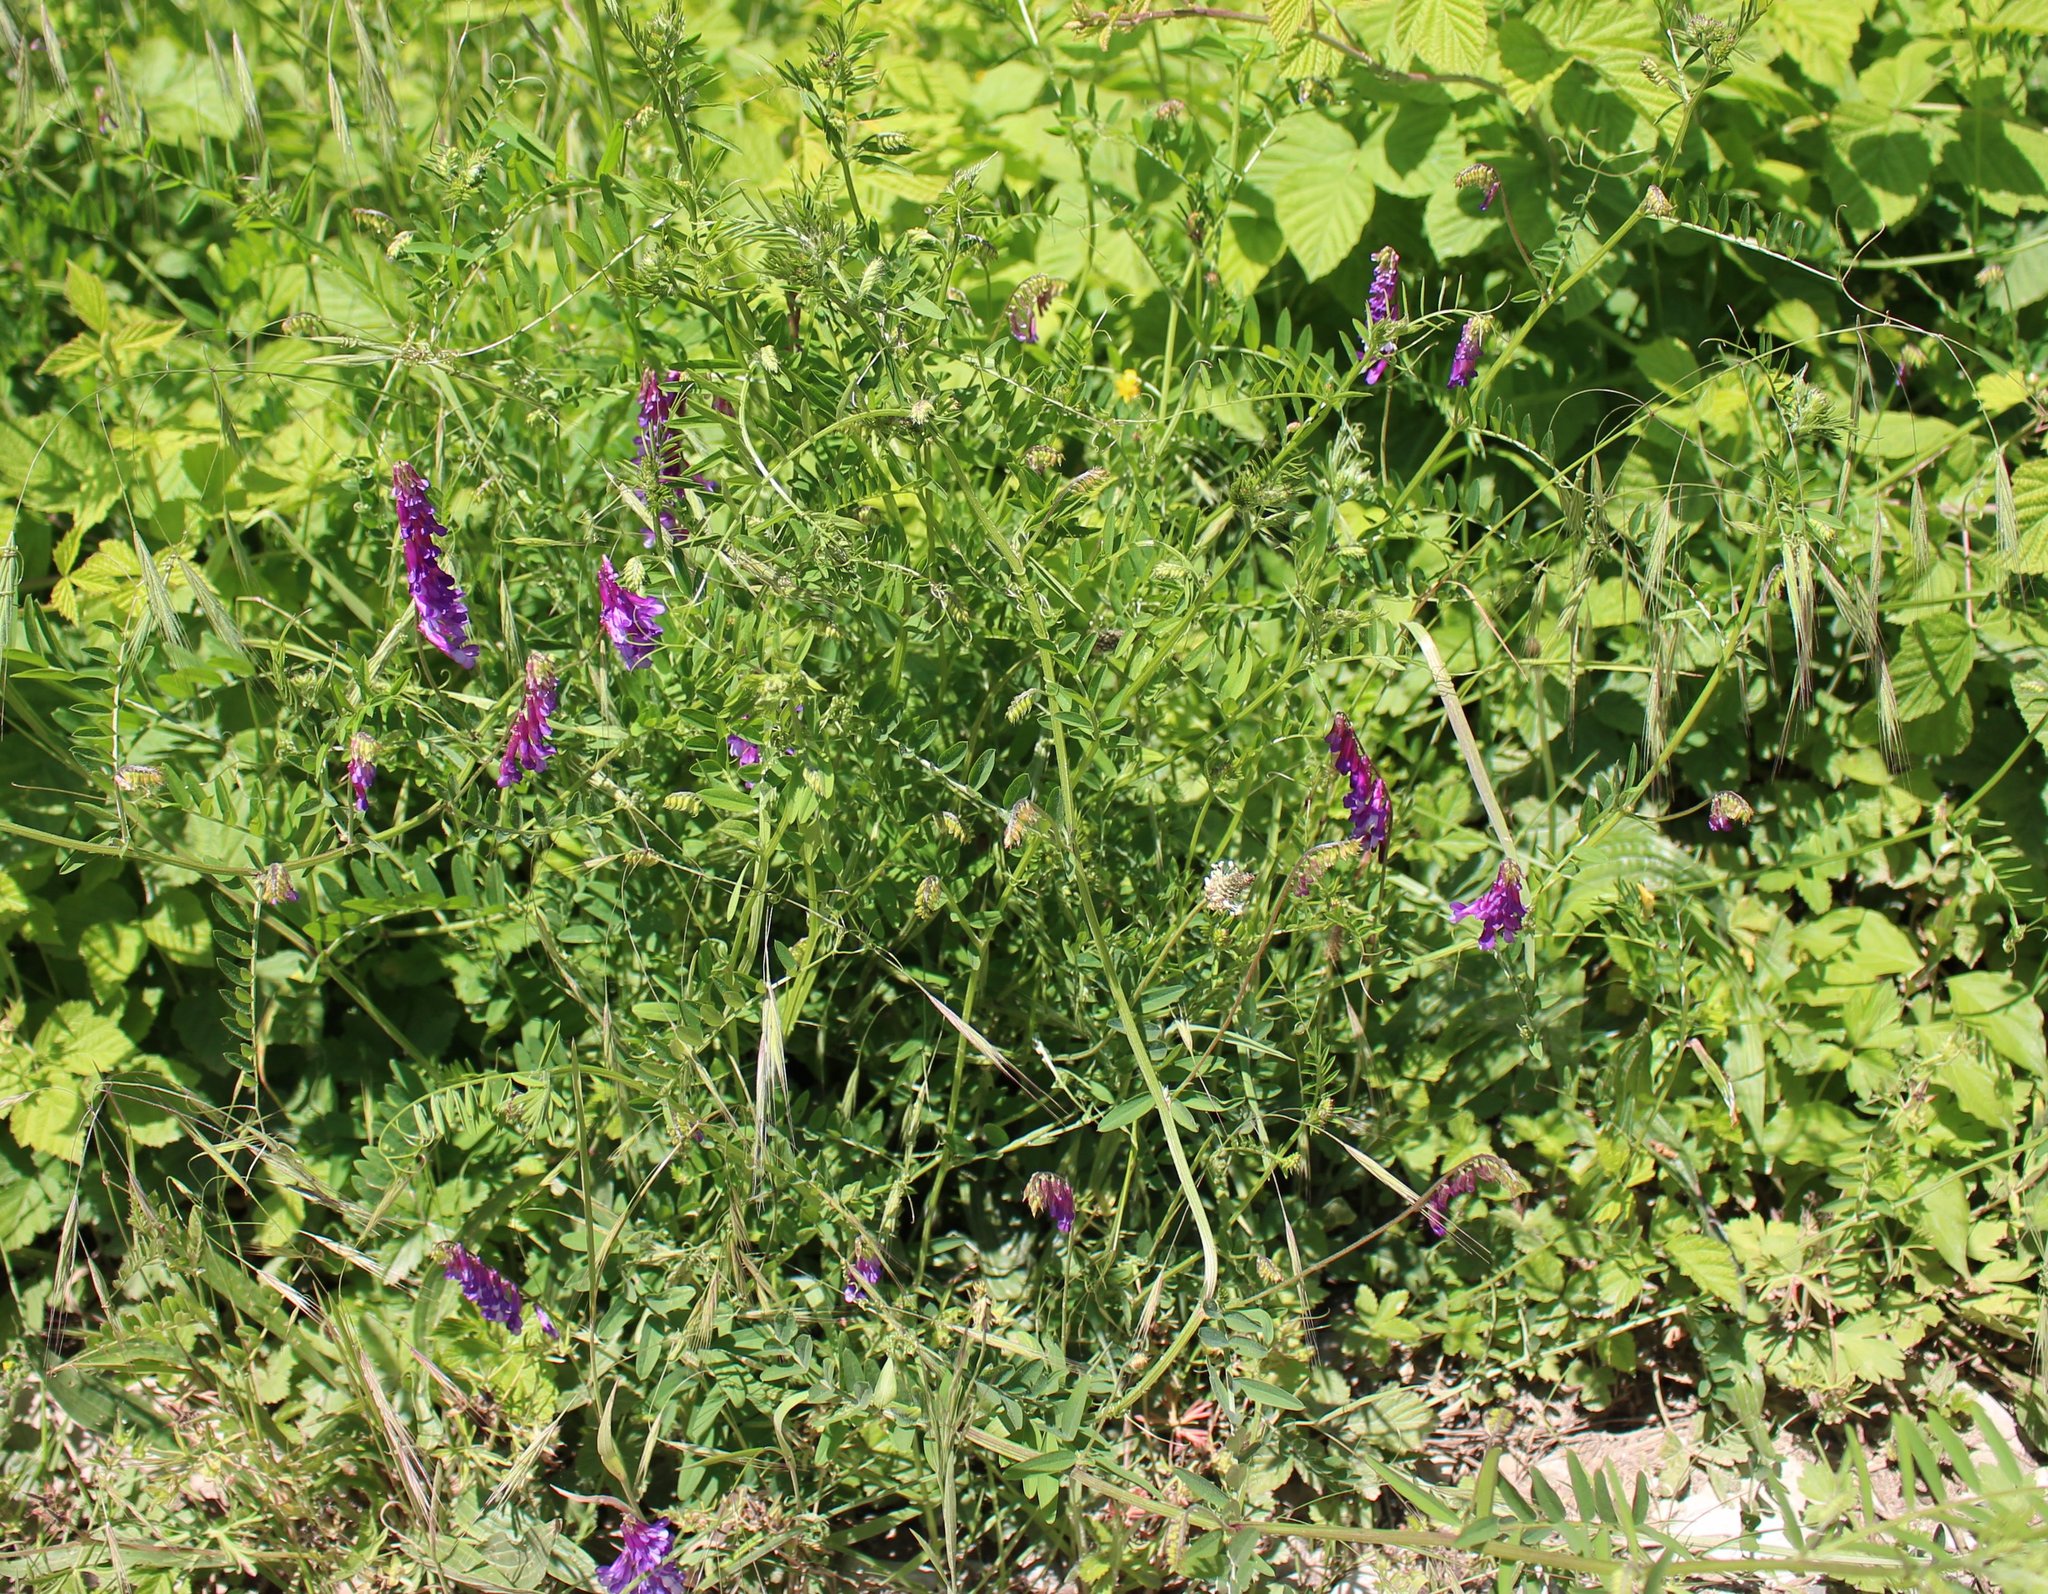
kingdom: Plantae
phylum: Tracheophyta
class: Magnoliopsida
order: Fabales
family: Fabaceae
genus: Vicia
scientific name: Vicia villosa
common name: Fodder vetch
